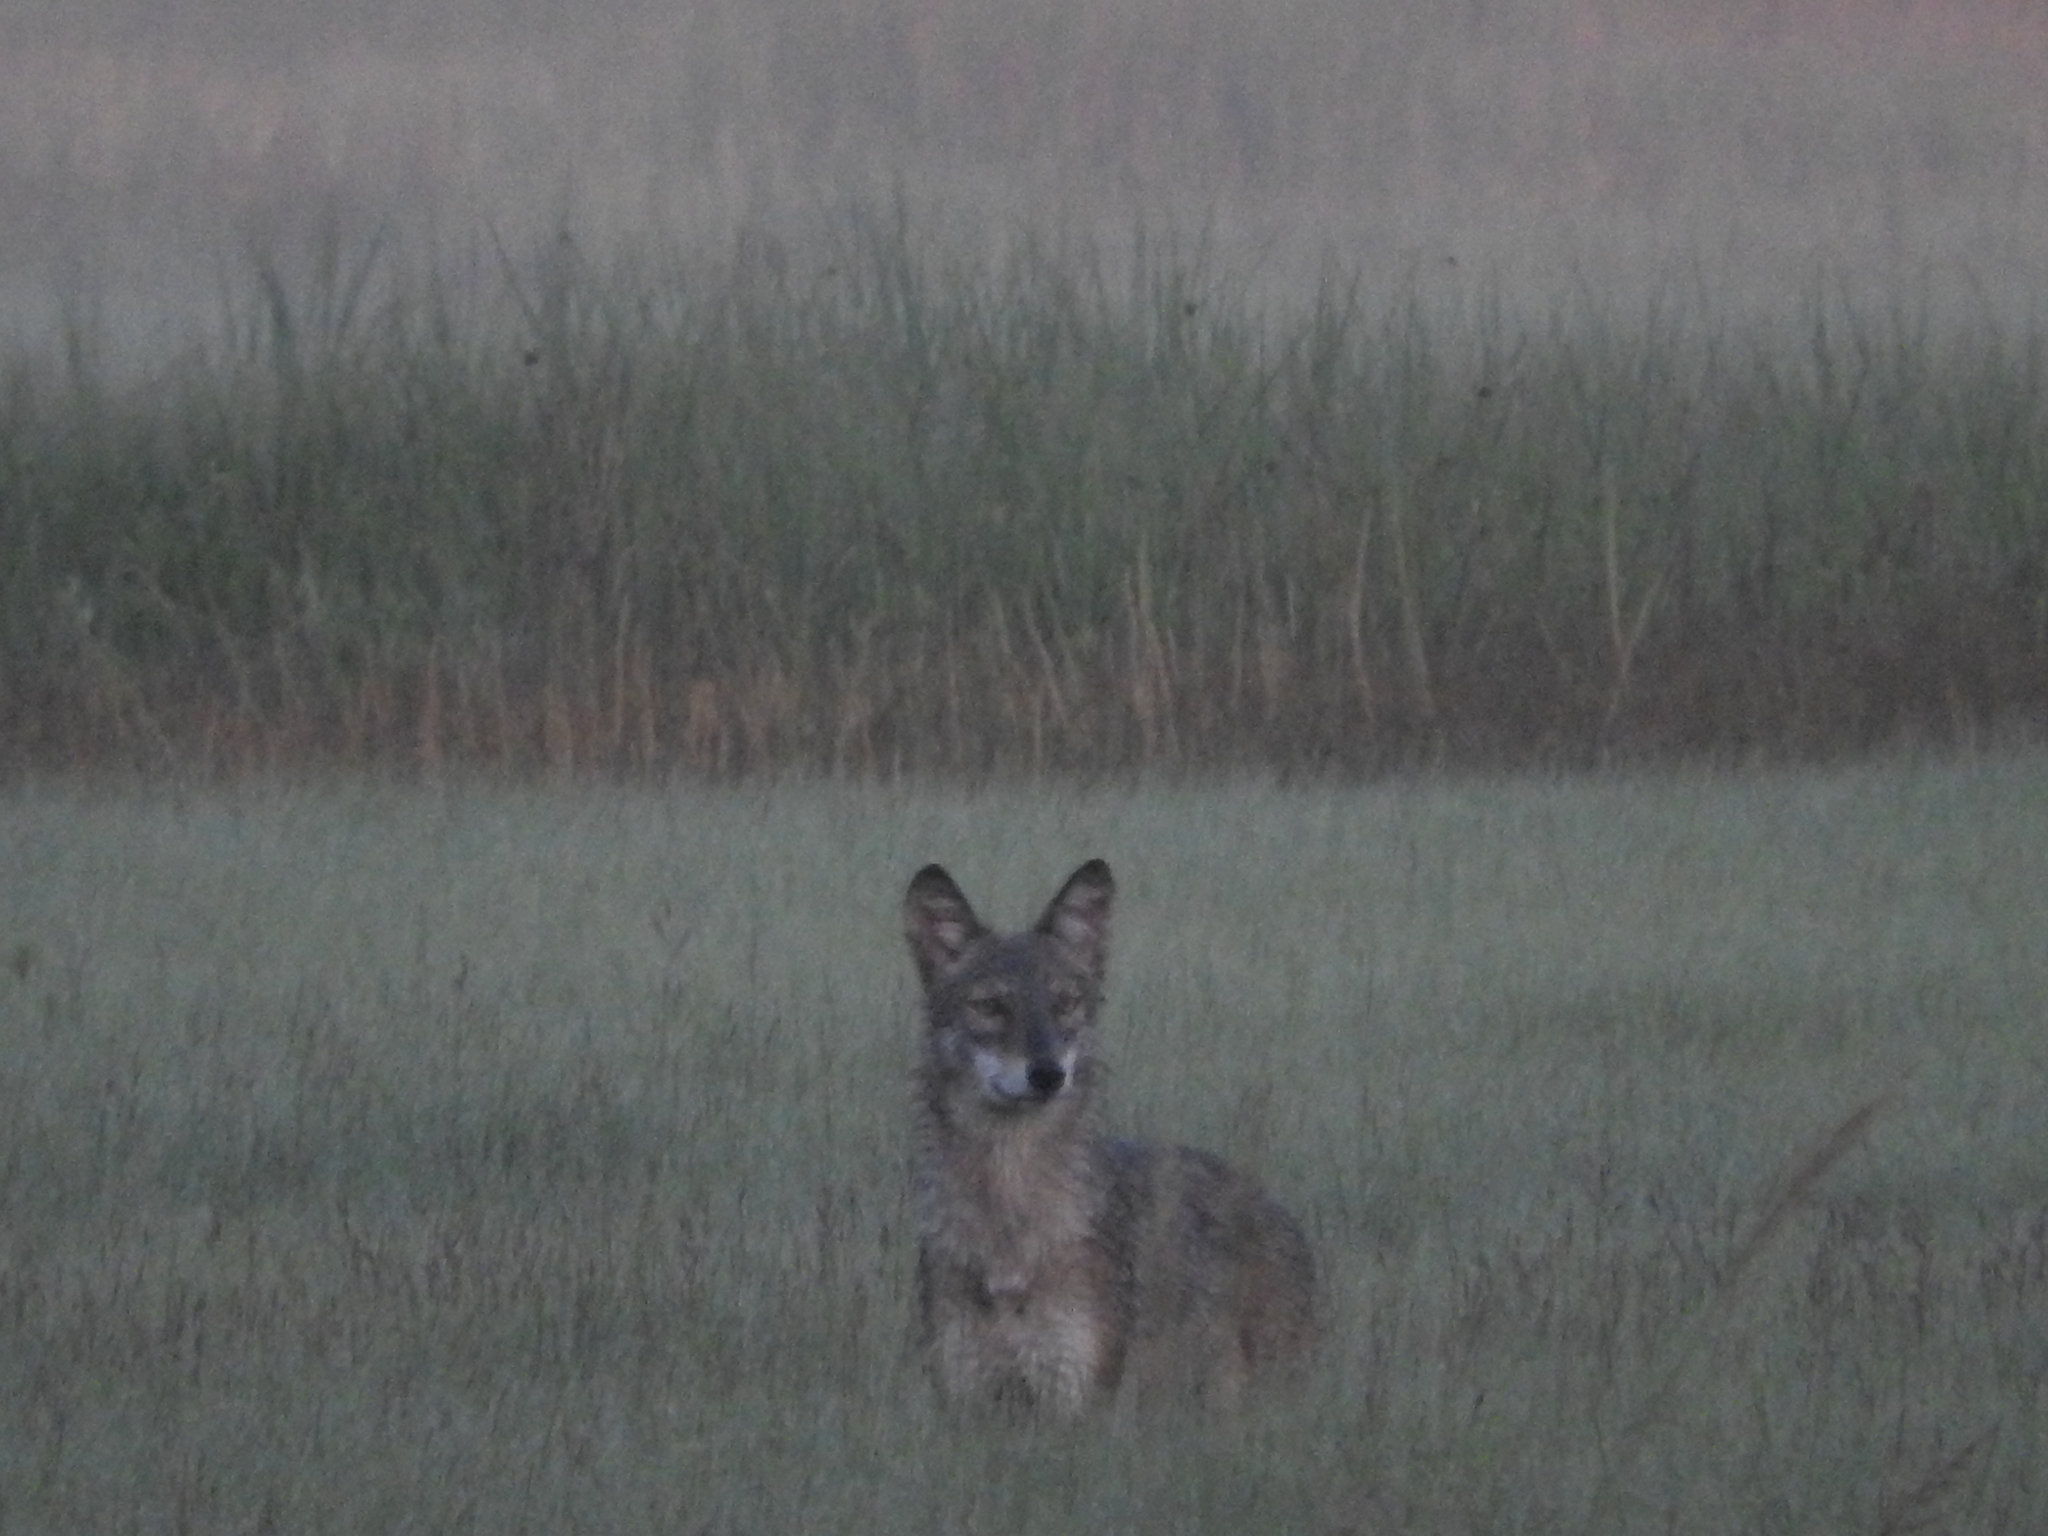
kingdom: Animalia
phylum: Chordata
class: Mammalia
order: Carnivora
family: Canidae
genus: Canis
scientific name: Canis latrans
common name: Coyote
